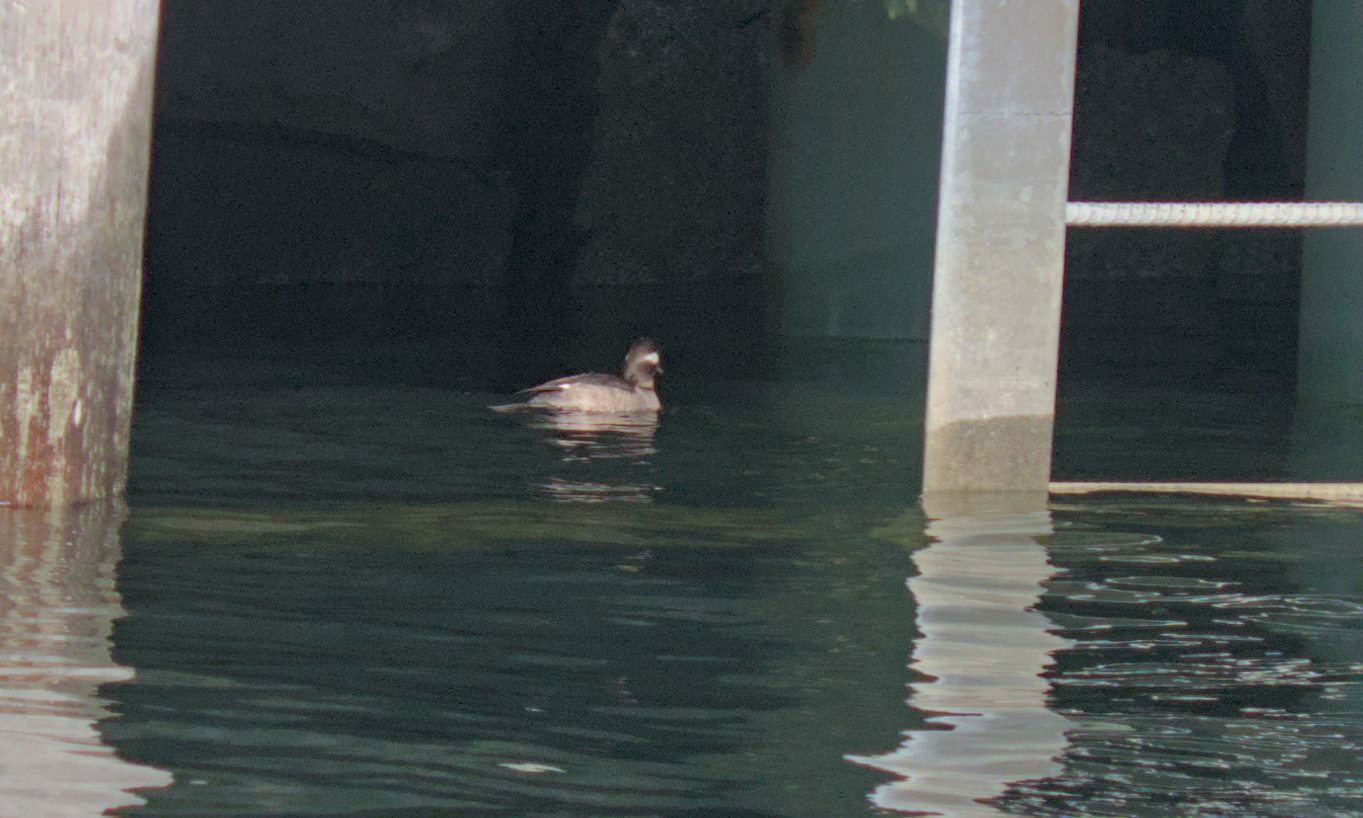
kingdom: Animalia
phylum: Chordata
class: Aves
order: Anseriformes
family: Anatidae
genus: Bucephala
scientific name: Bucephala albeola
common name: Bufflehead
